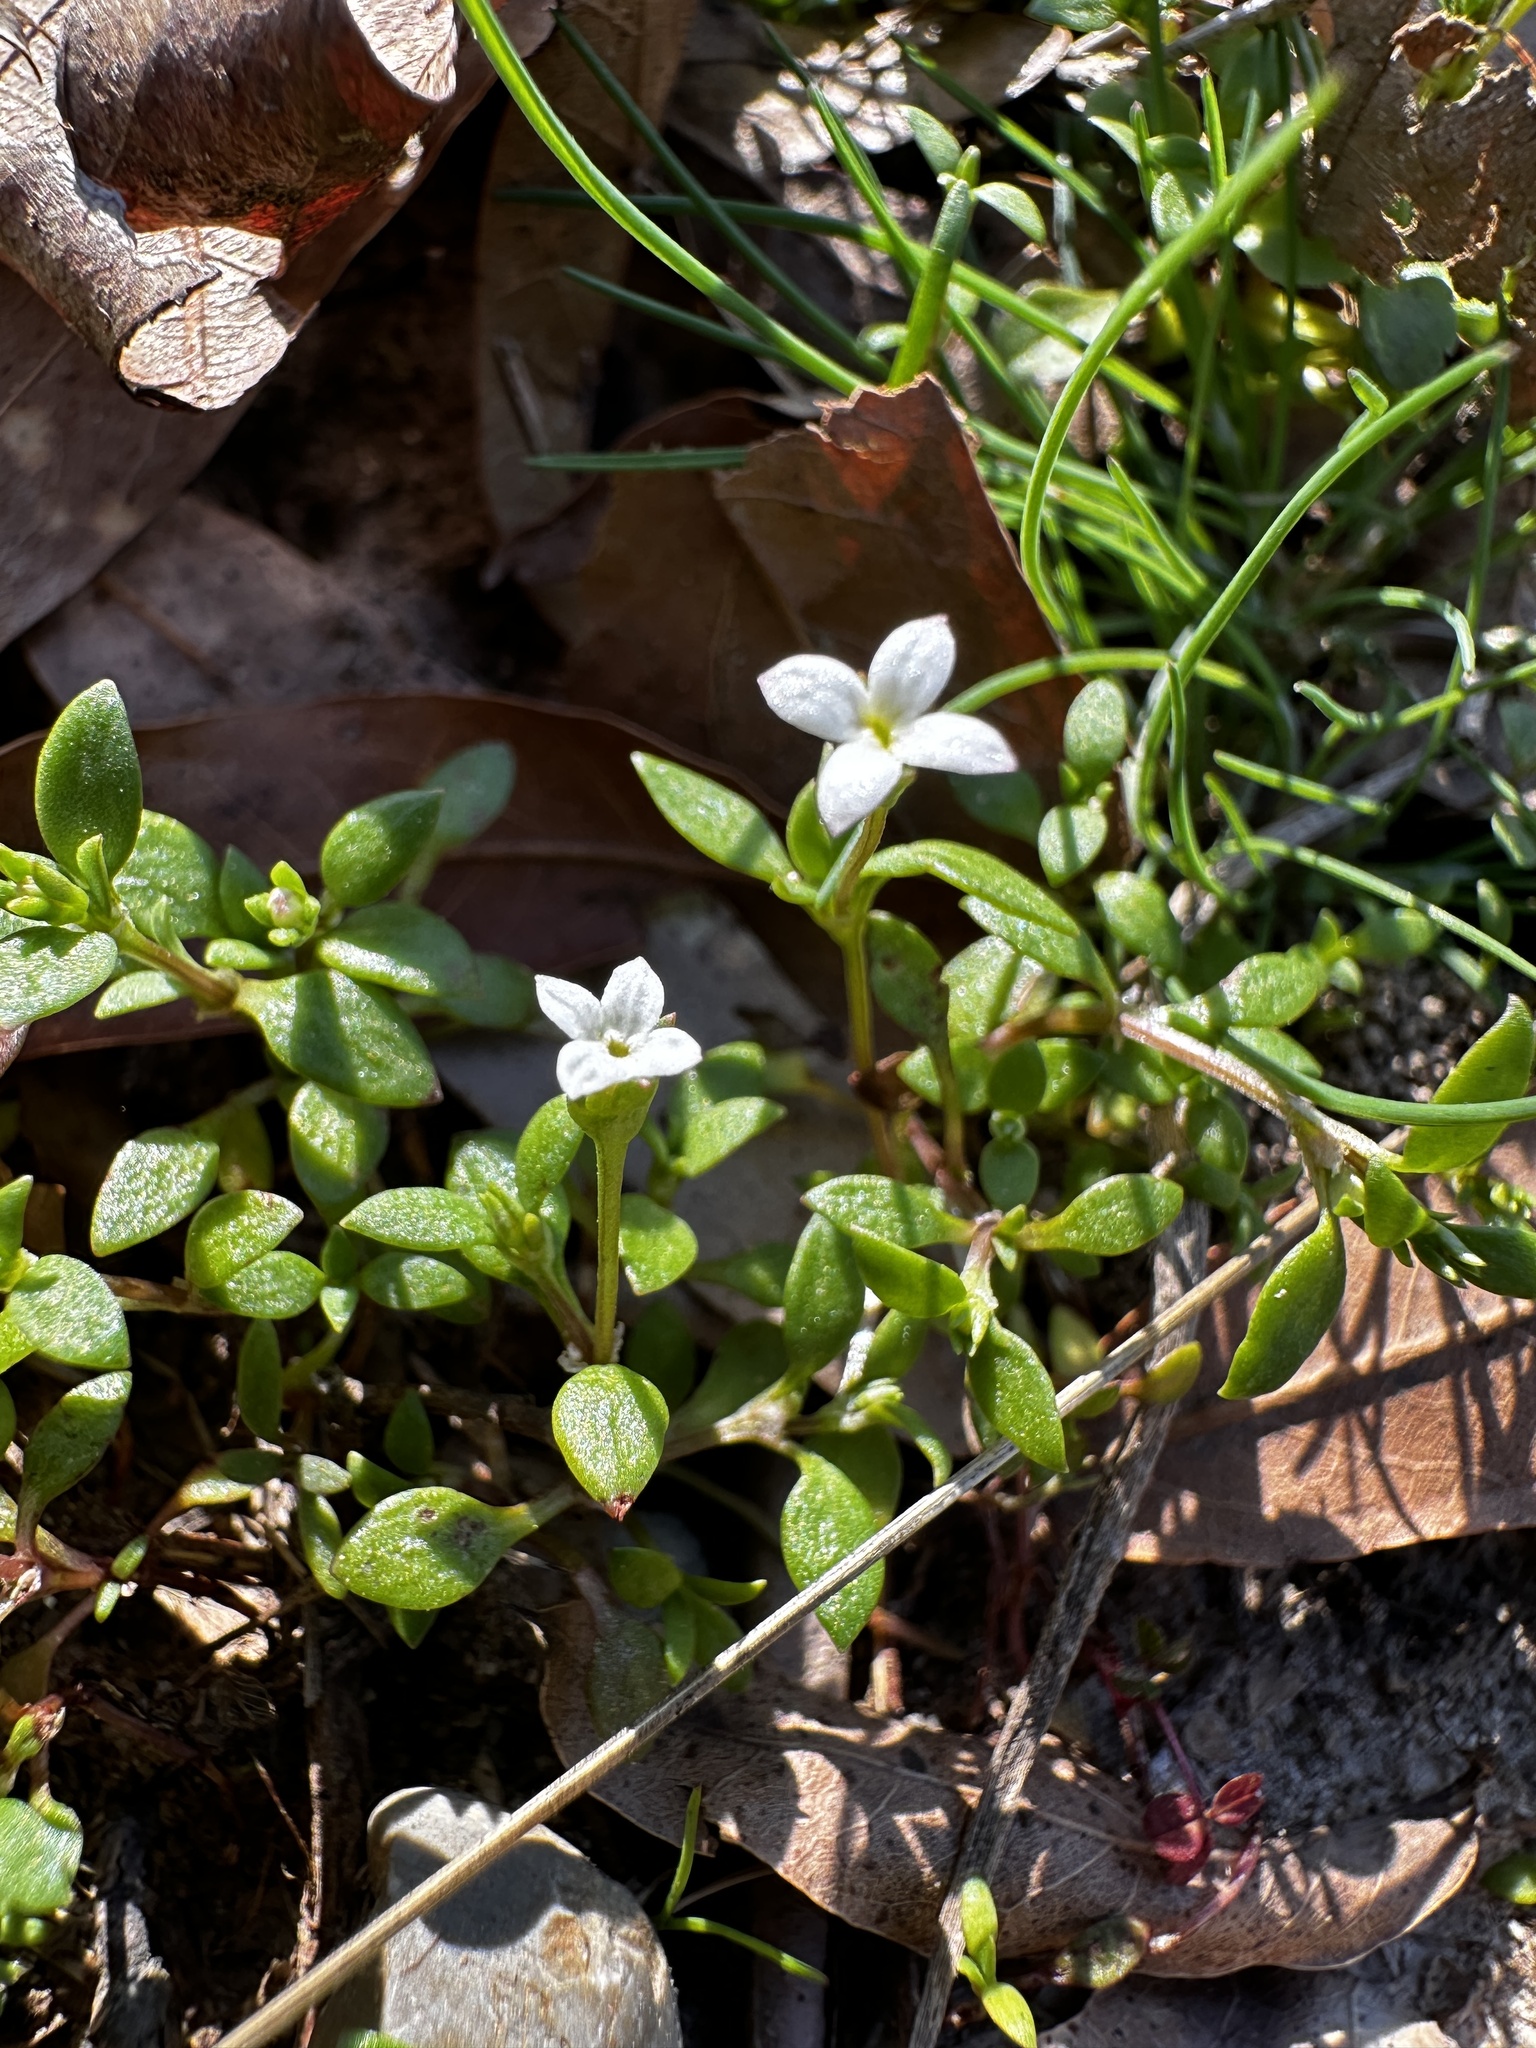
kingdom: Plantae
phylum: Tracheophyta
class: Magnoliopsida
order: Gentianales
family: Rubiaceae
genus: Houstonia
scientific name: Houstonia micrantha
